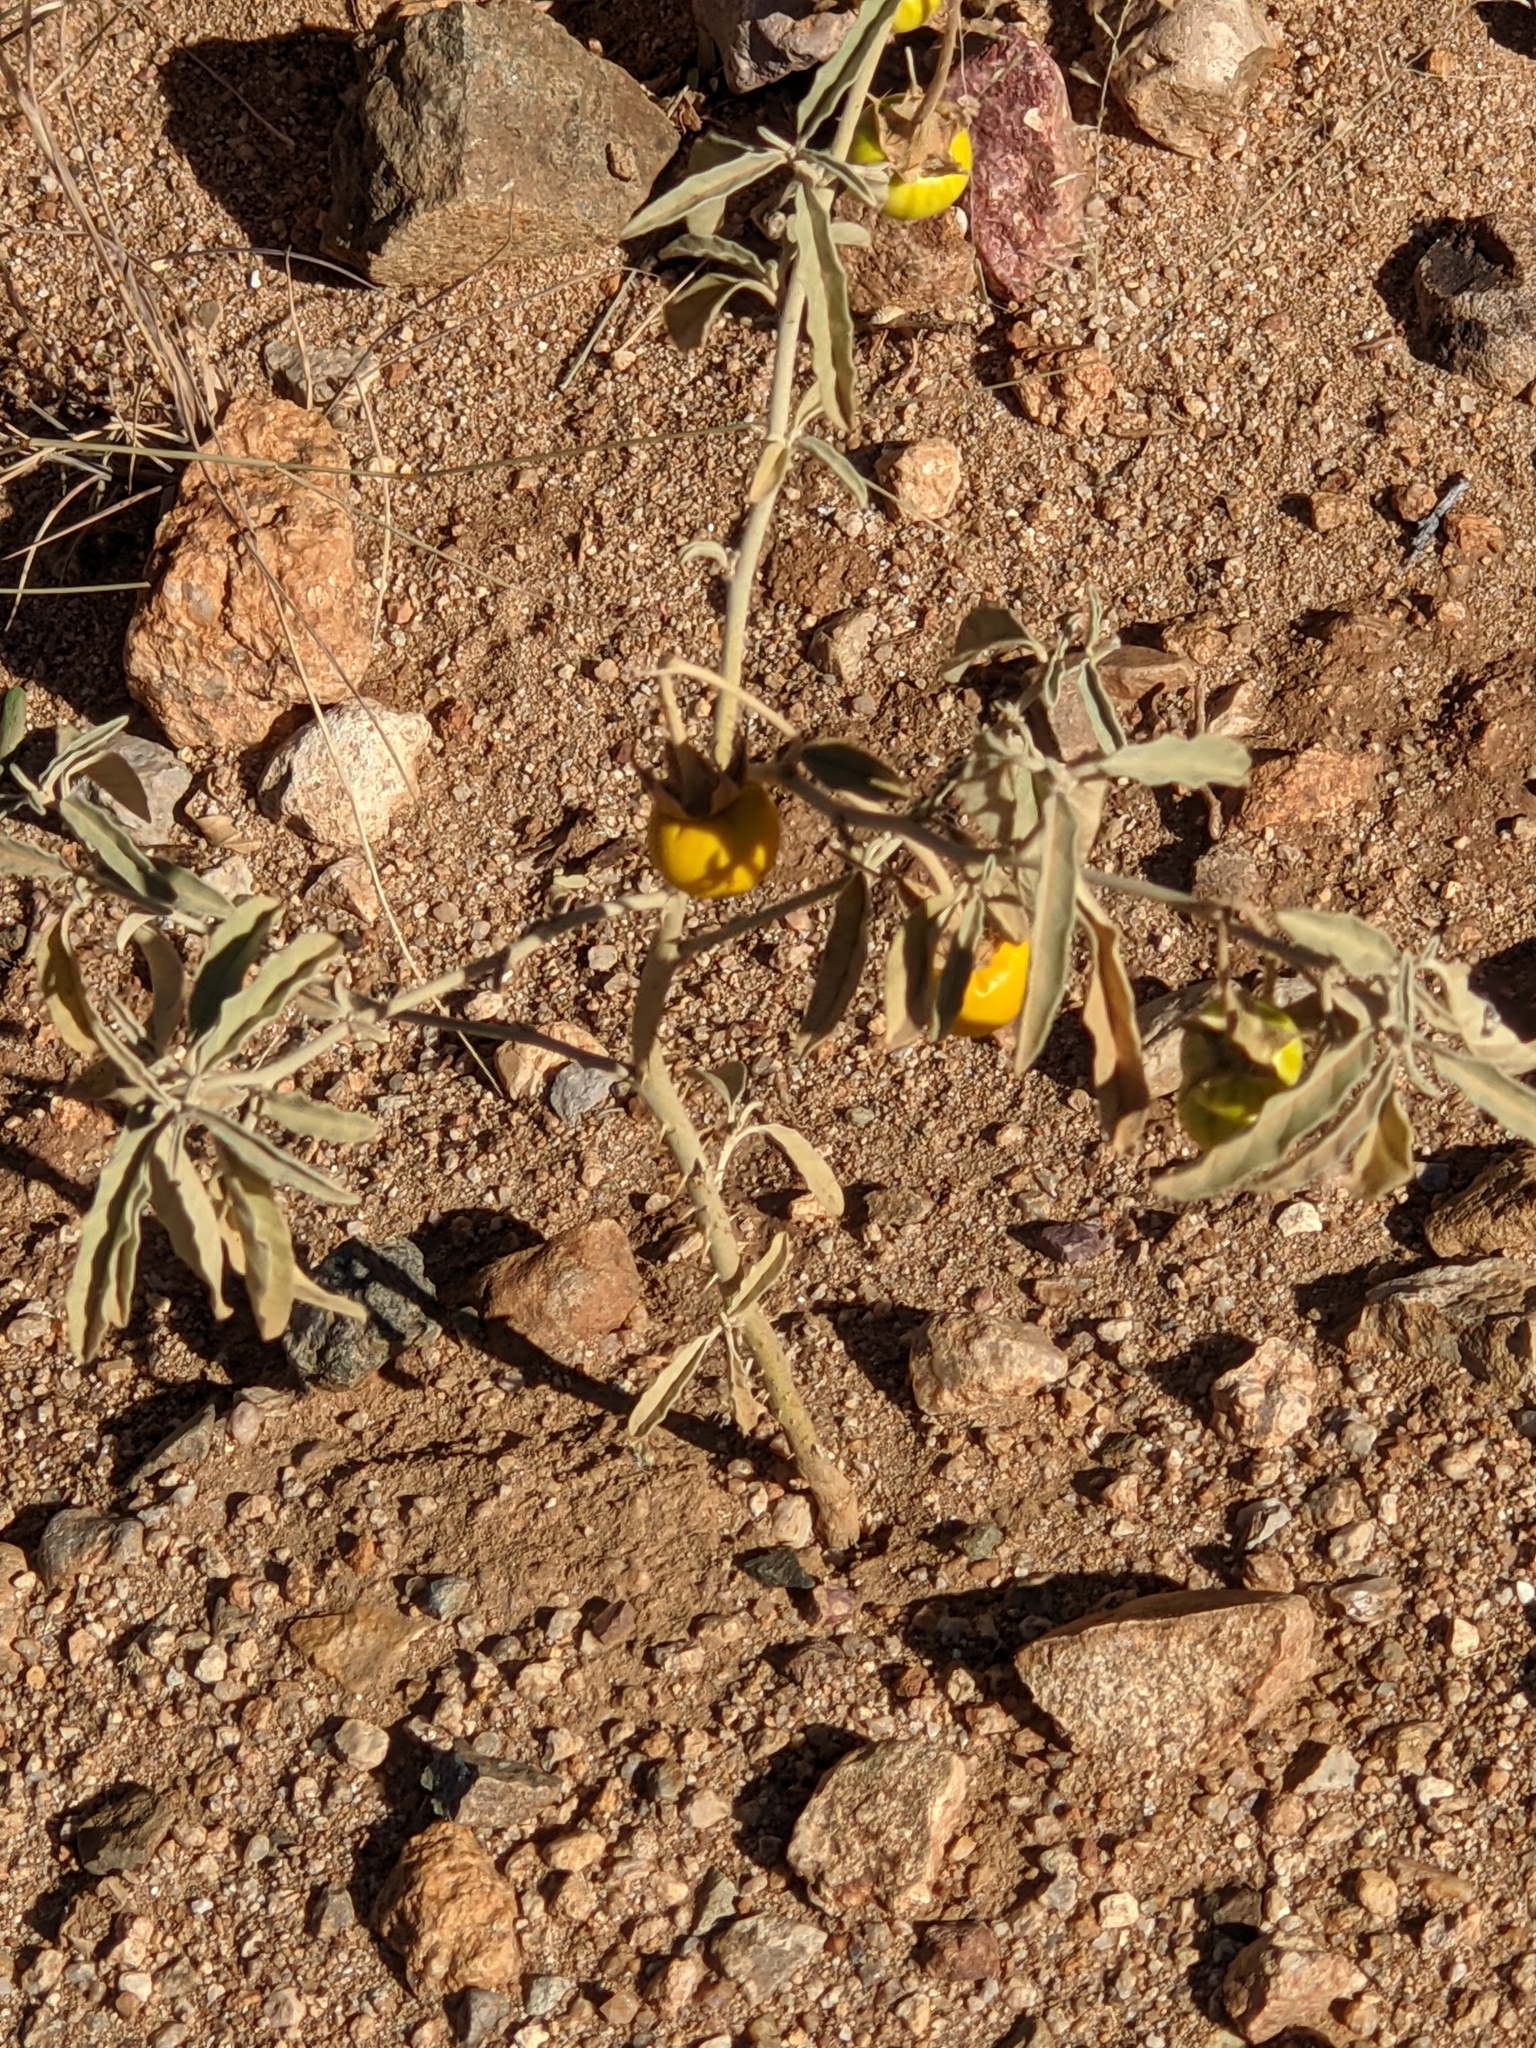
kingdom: Plantae
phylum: Tracheophyta
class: Magnoliopsida
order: Solanales
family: Solanaceae
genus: Solanum
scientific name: Solanum elaeagnifolium
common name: Silverleaf nightshade
